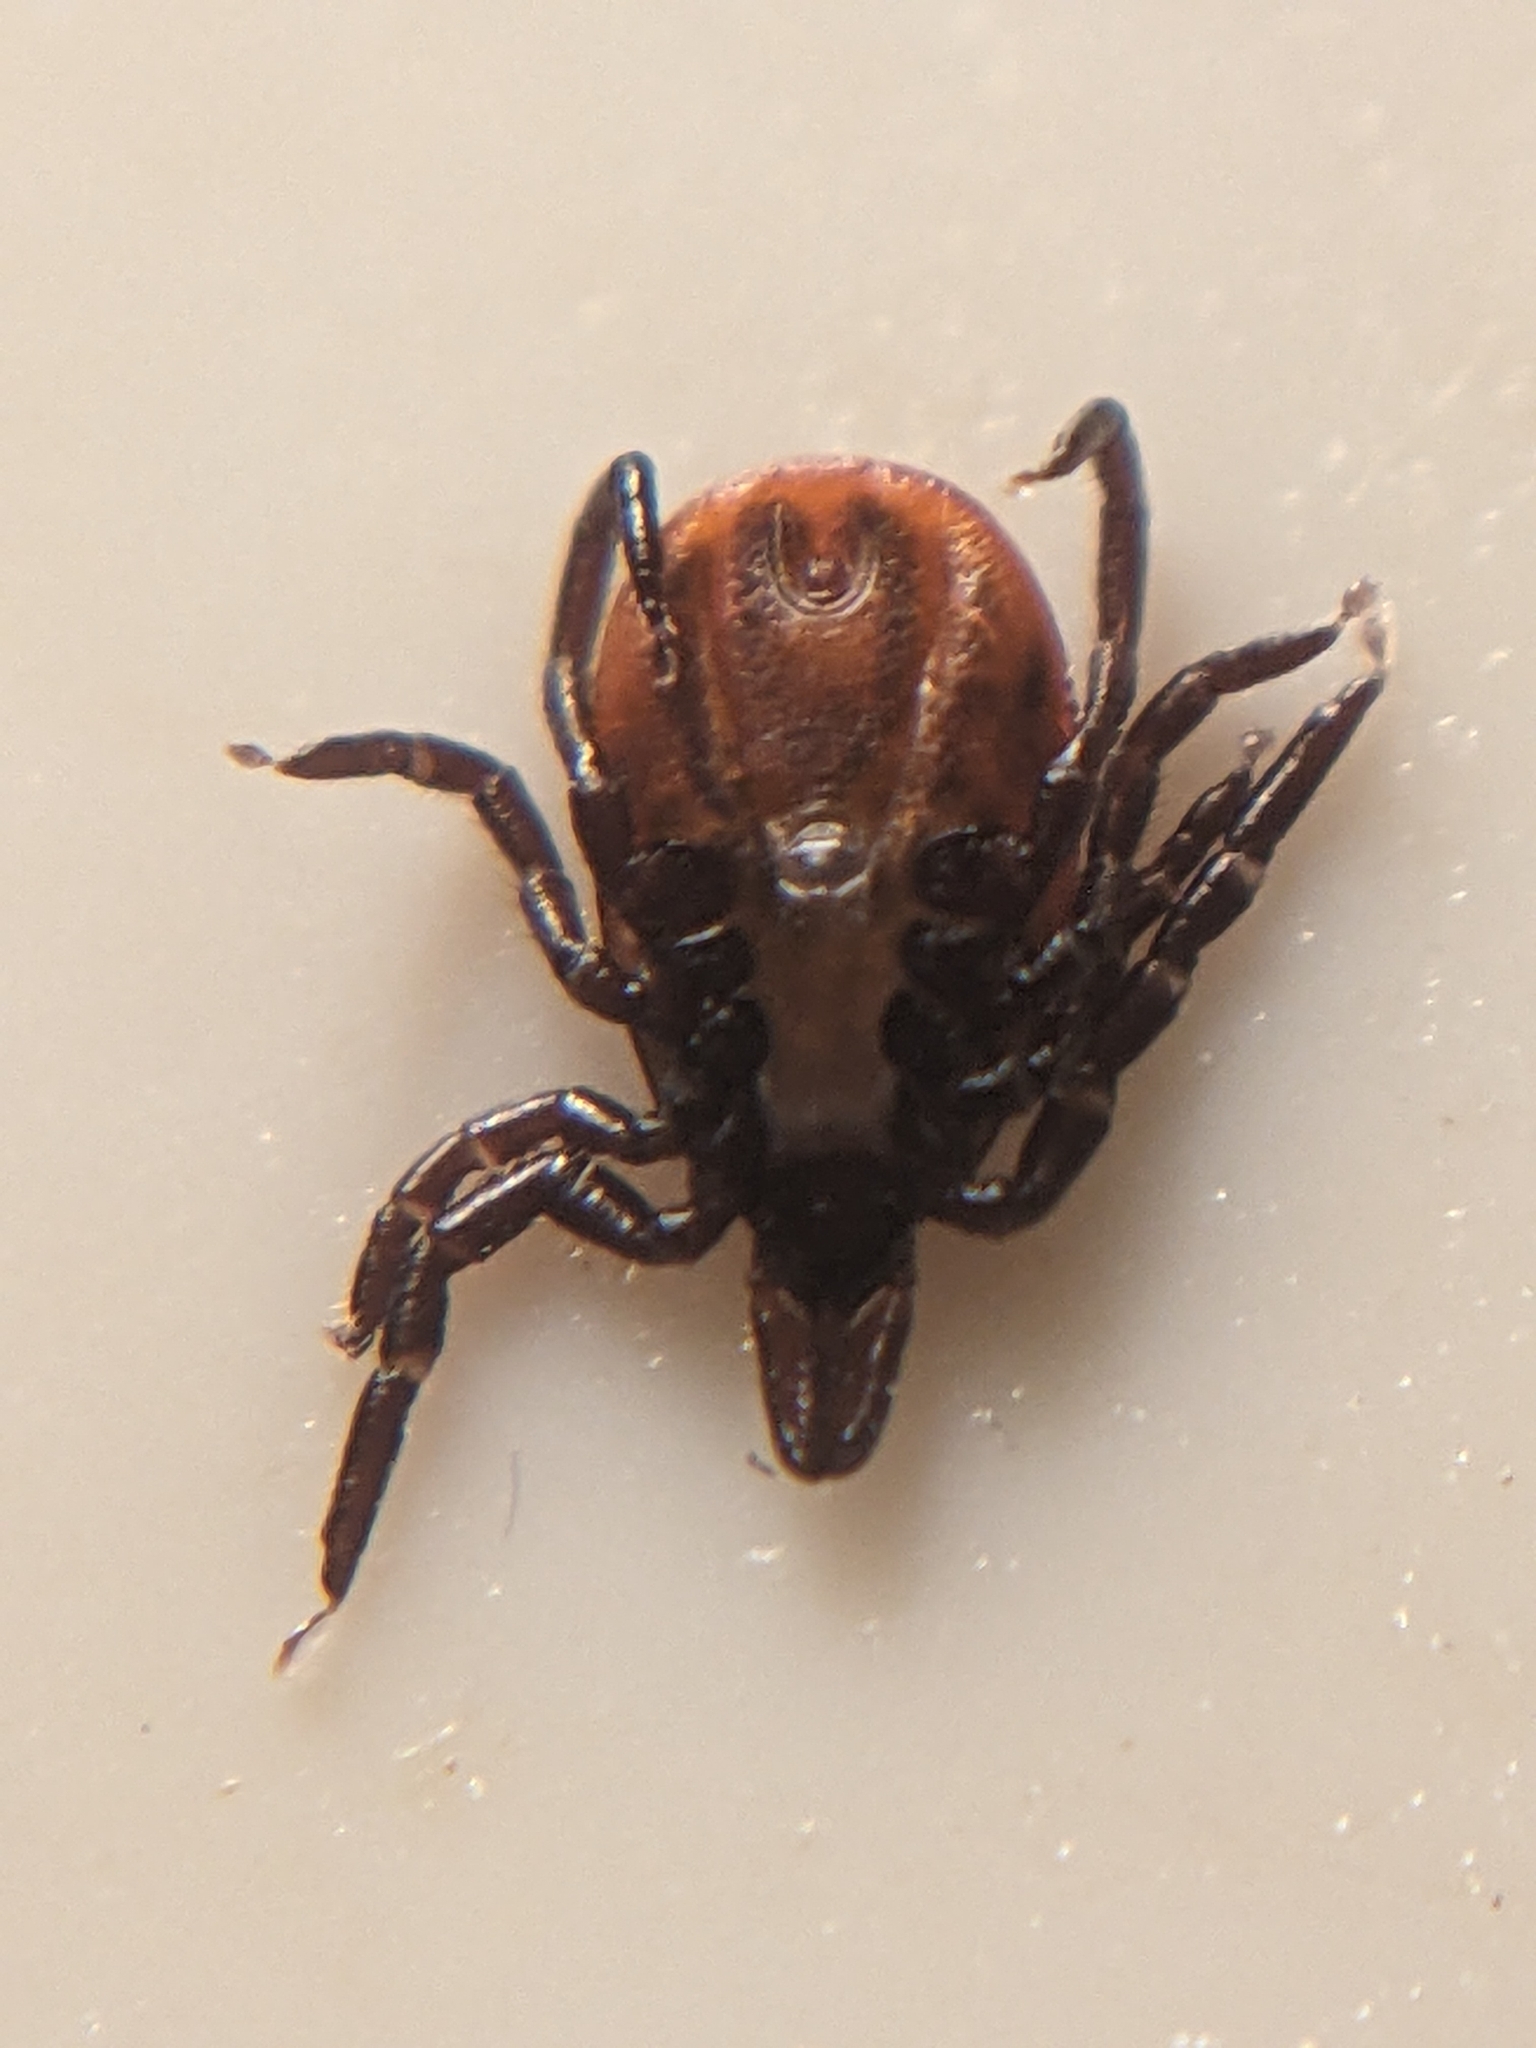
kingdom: Animalia
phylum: Arthropoda
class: Arachnida
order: Ixodida
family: Ixodidae
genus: Ixodes
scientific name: Ixodes scapularis
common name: Black legged tick
